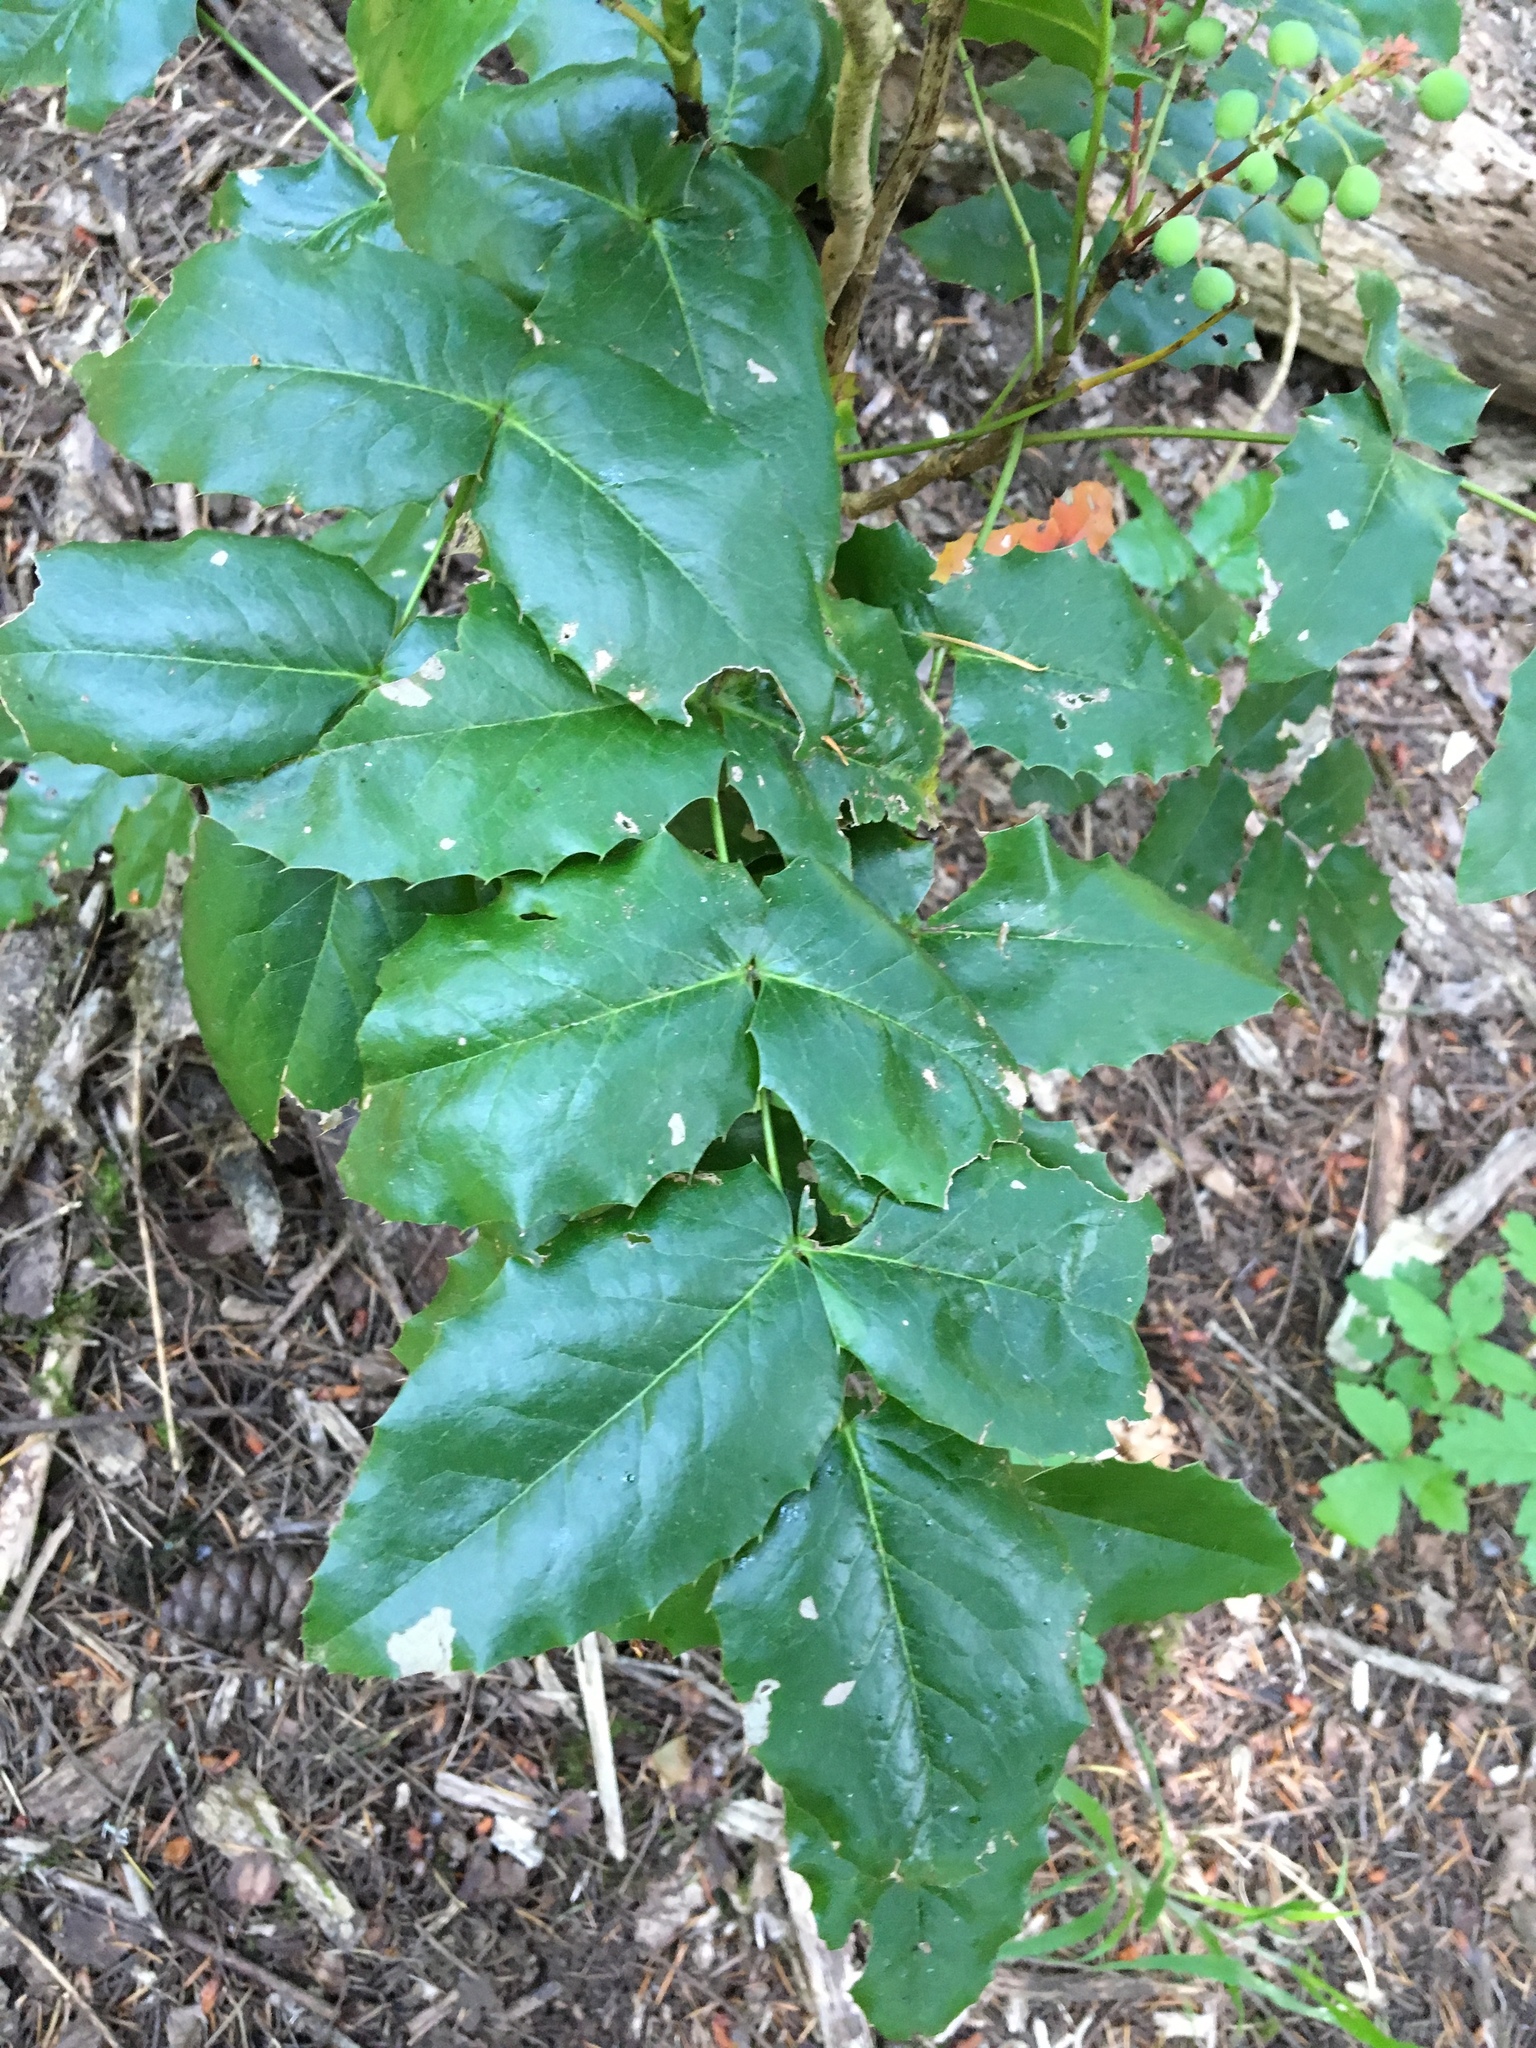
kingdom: Plantae
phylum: Tracheophyta
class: Magnoliopsida
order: Ranunculales
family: Berberidaceae
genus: Mahonia
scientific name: Mahonia aquifolium
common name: Oregon-grape
